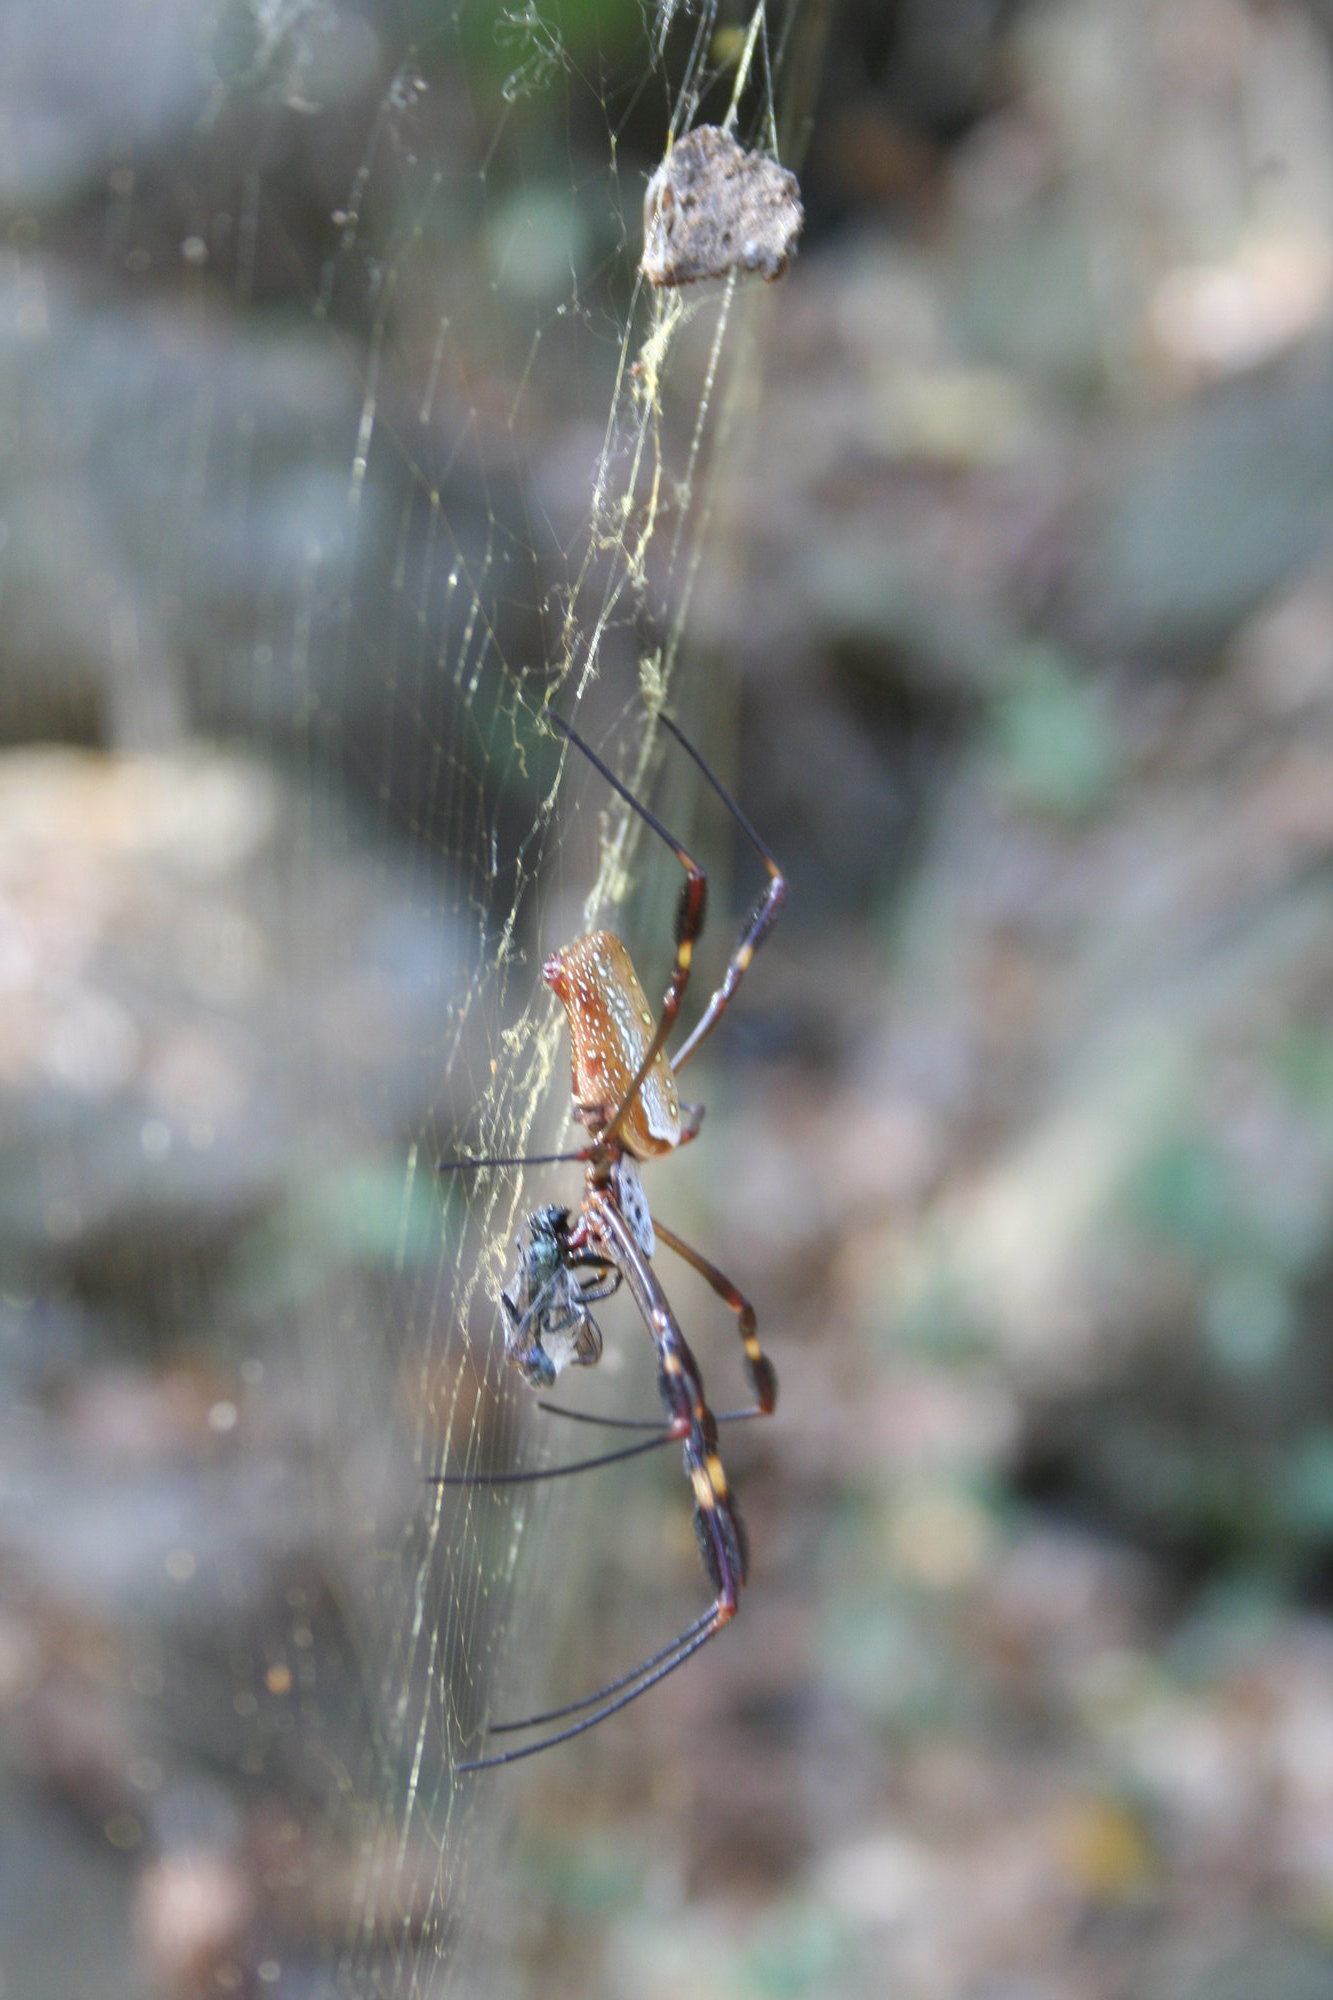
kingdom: Animalia
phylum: Arthropoda
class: Arachnida
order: Araneae
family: Araneidae
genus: Trichonephila
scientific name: Trichonephila clavipes
